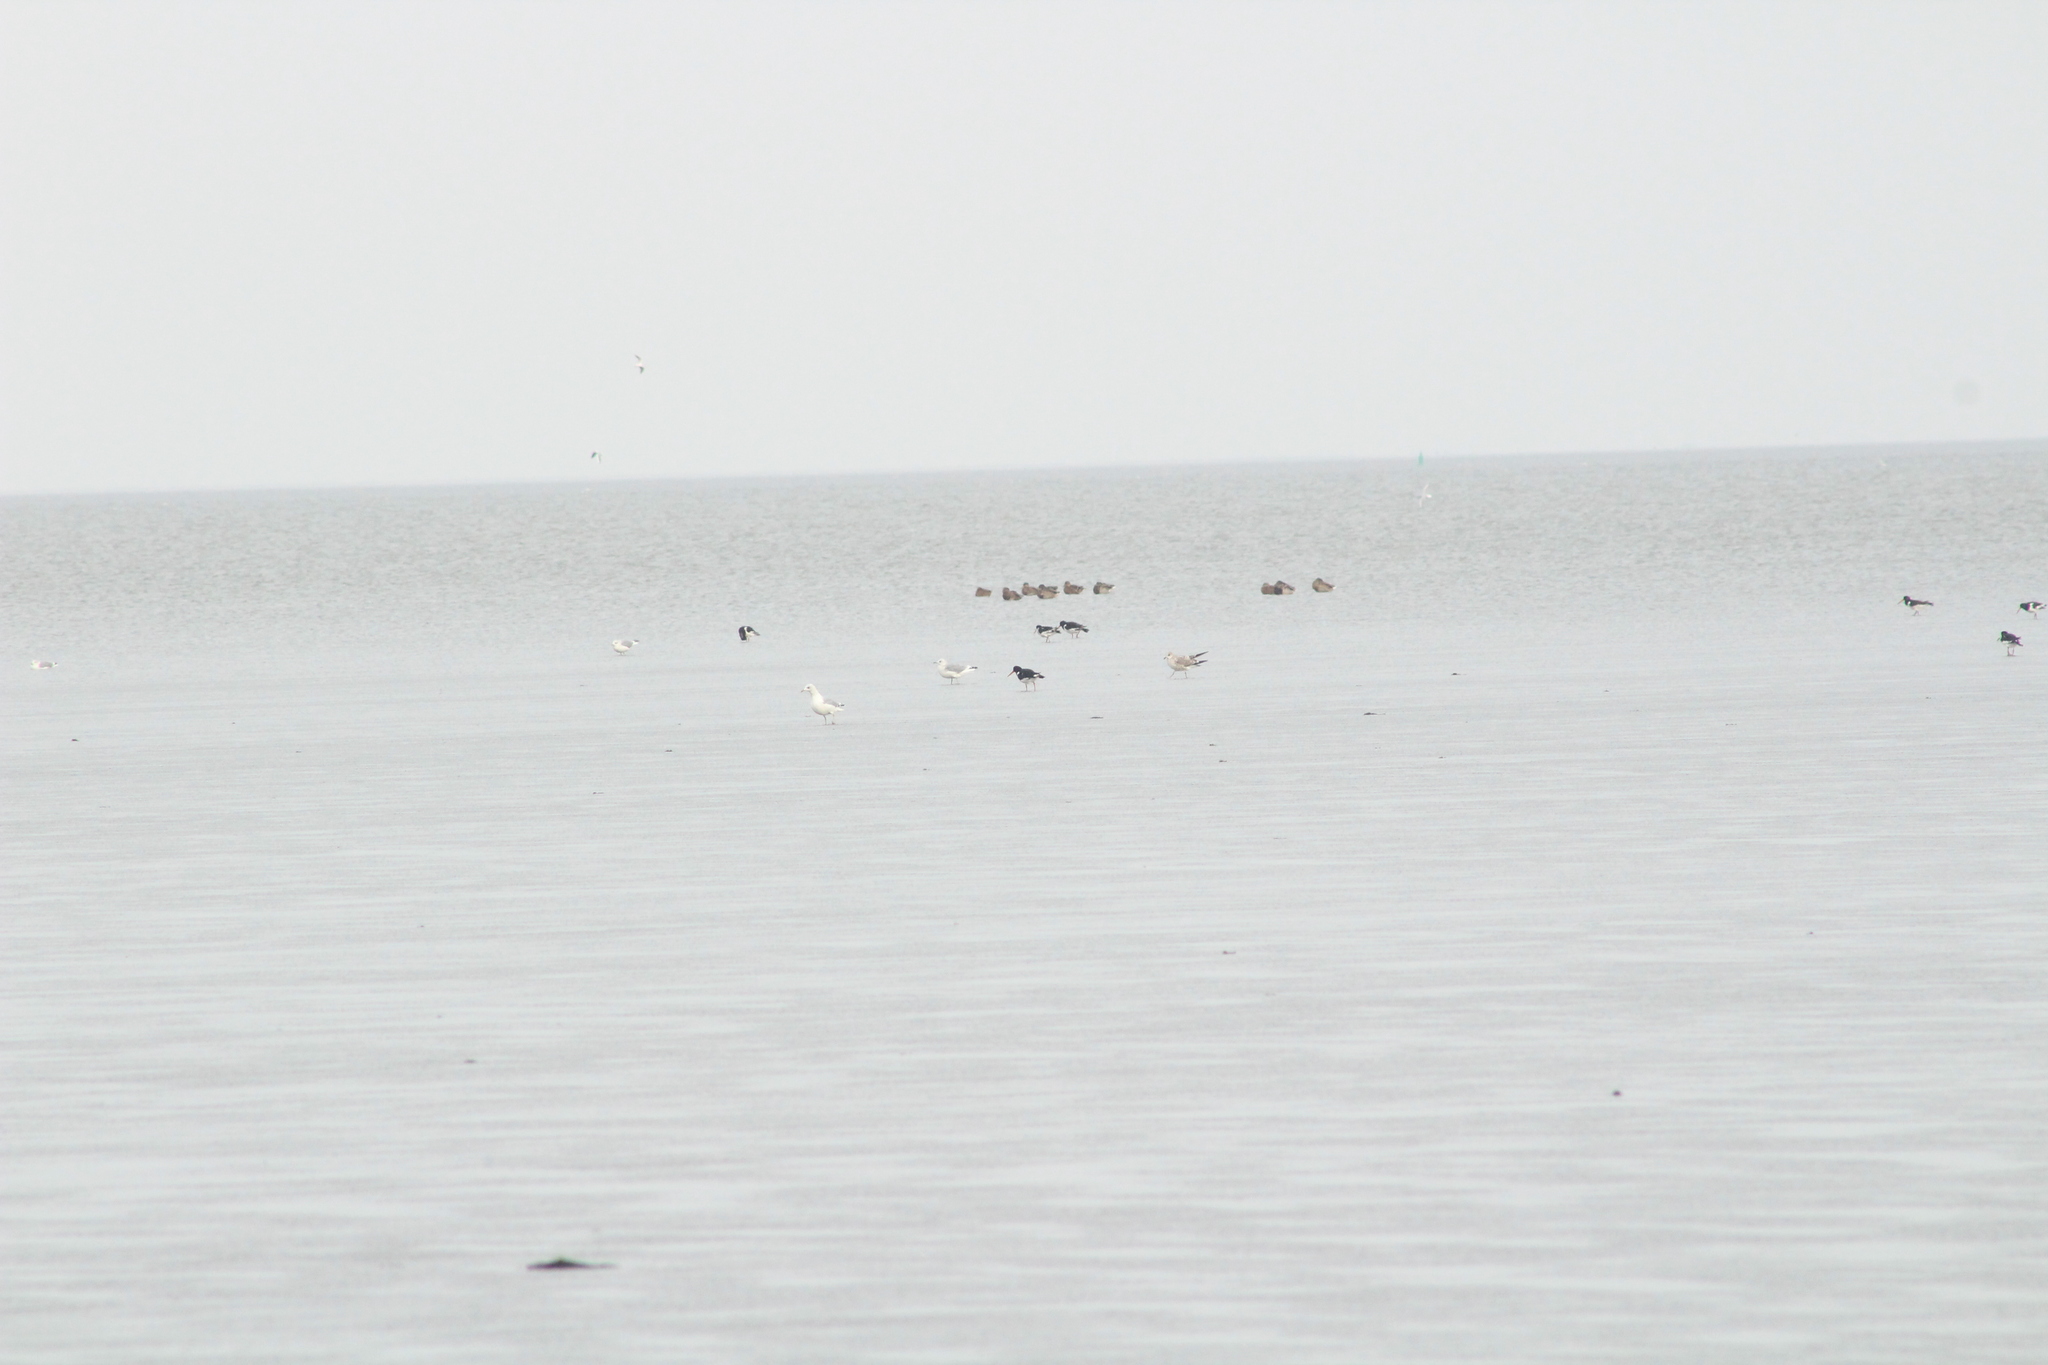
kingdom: Animalia
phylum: Chordata
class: Aves
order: Charadriiformes
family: Haematopodidae
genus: Haematopus
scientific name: Haematopus ostralegus
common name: Eurasian oystercatcher
